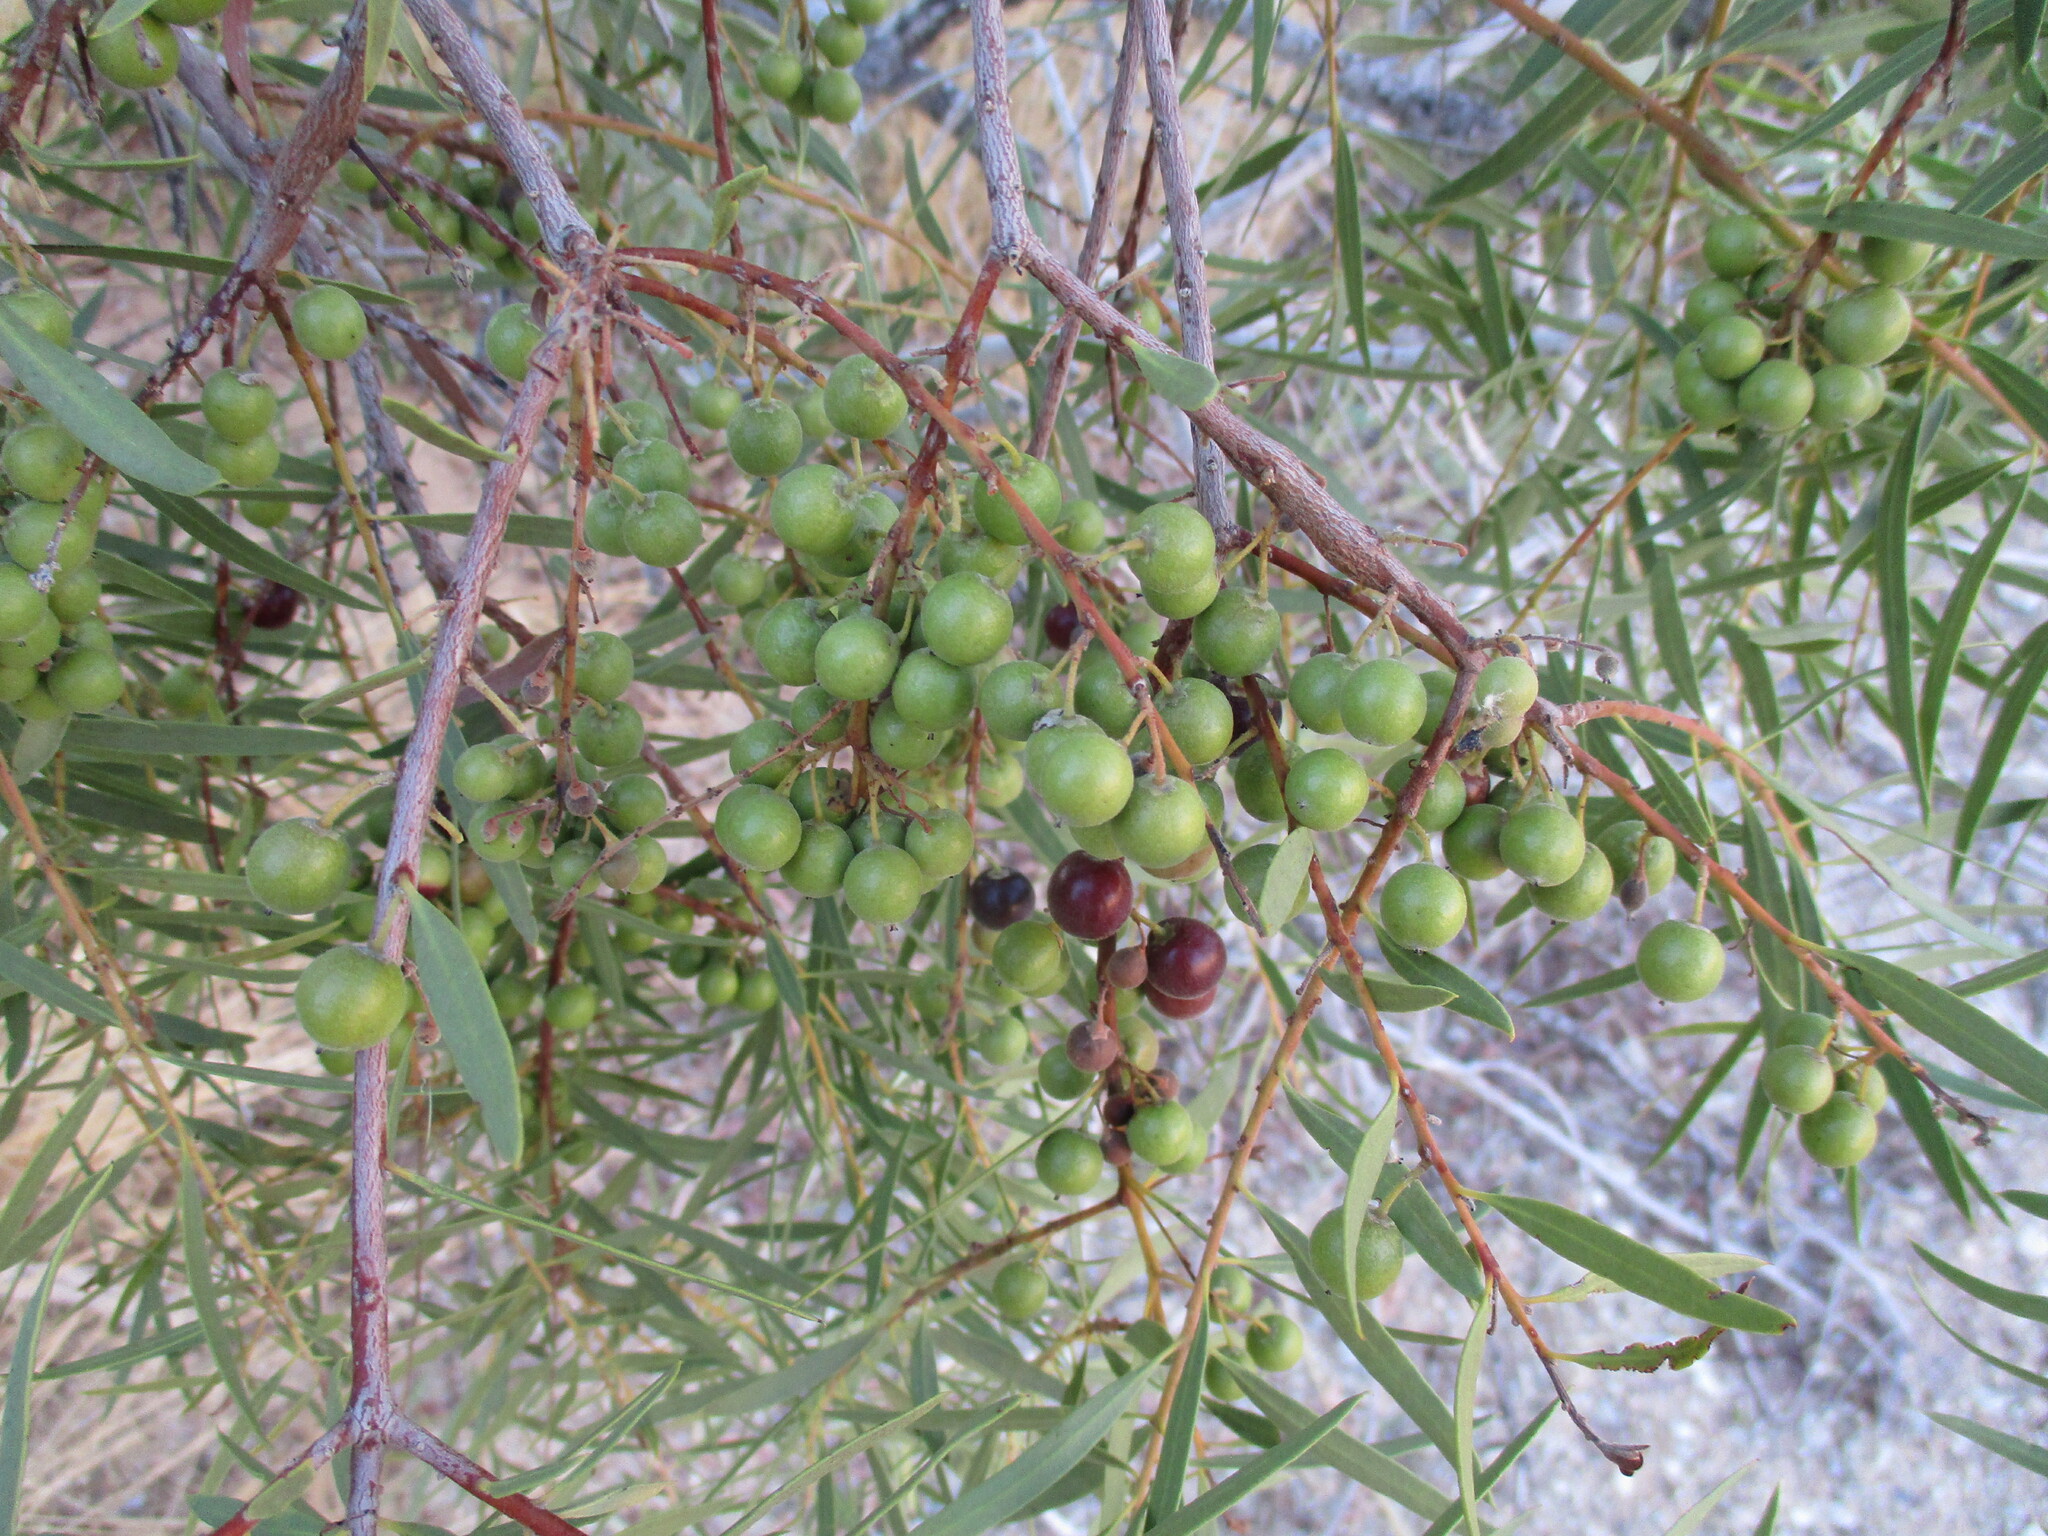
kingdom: Plantae
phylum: Tracheophyta
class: Magnoliopsida
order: Ericales
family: Ebenaceae
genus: Euclea
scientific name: Euclea pseudebenus
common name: Black ebony
